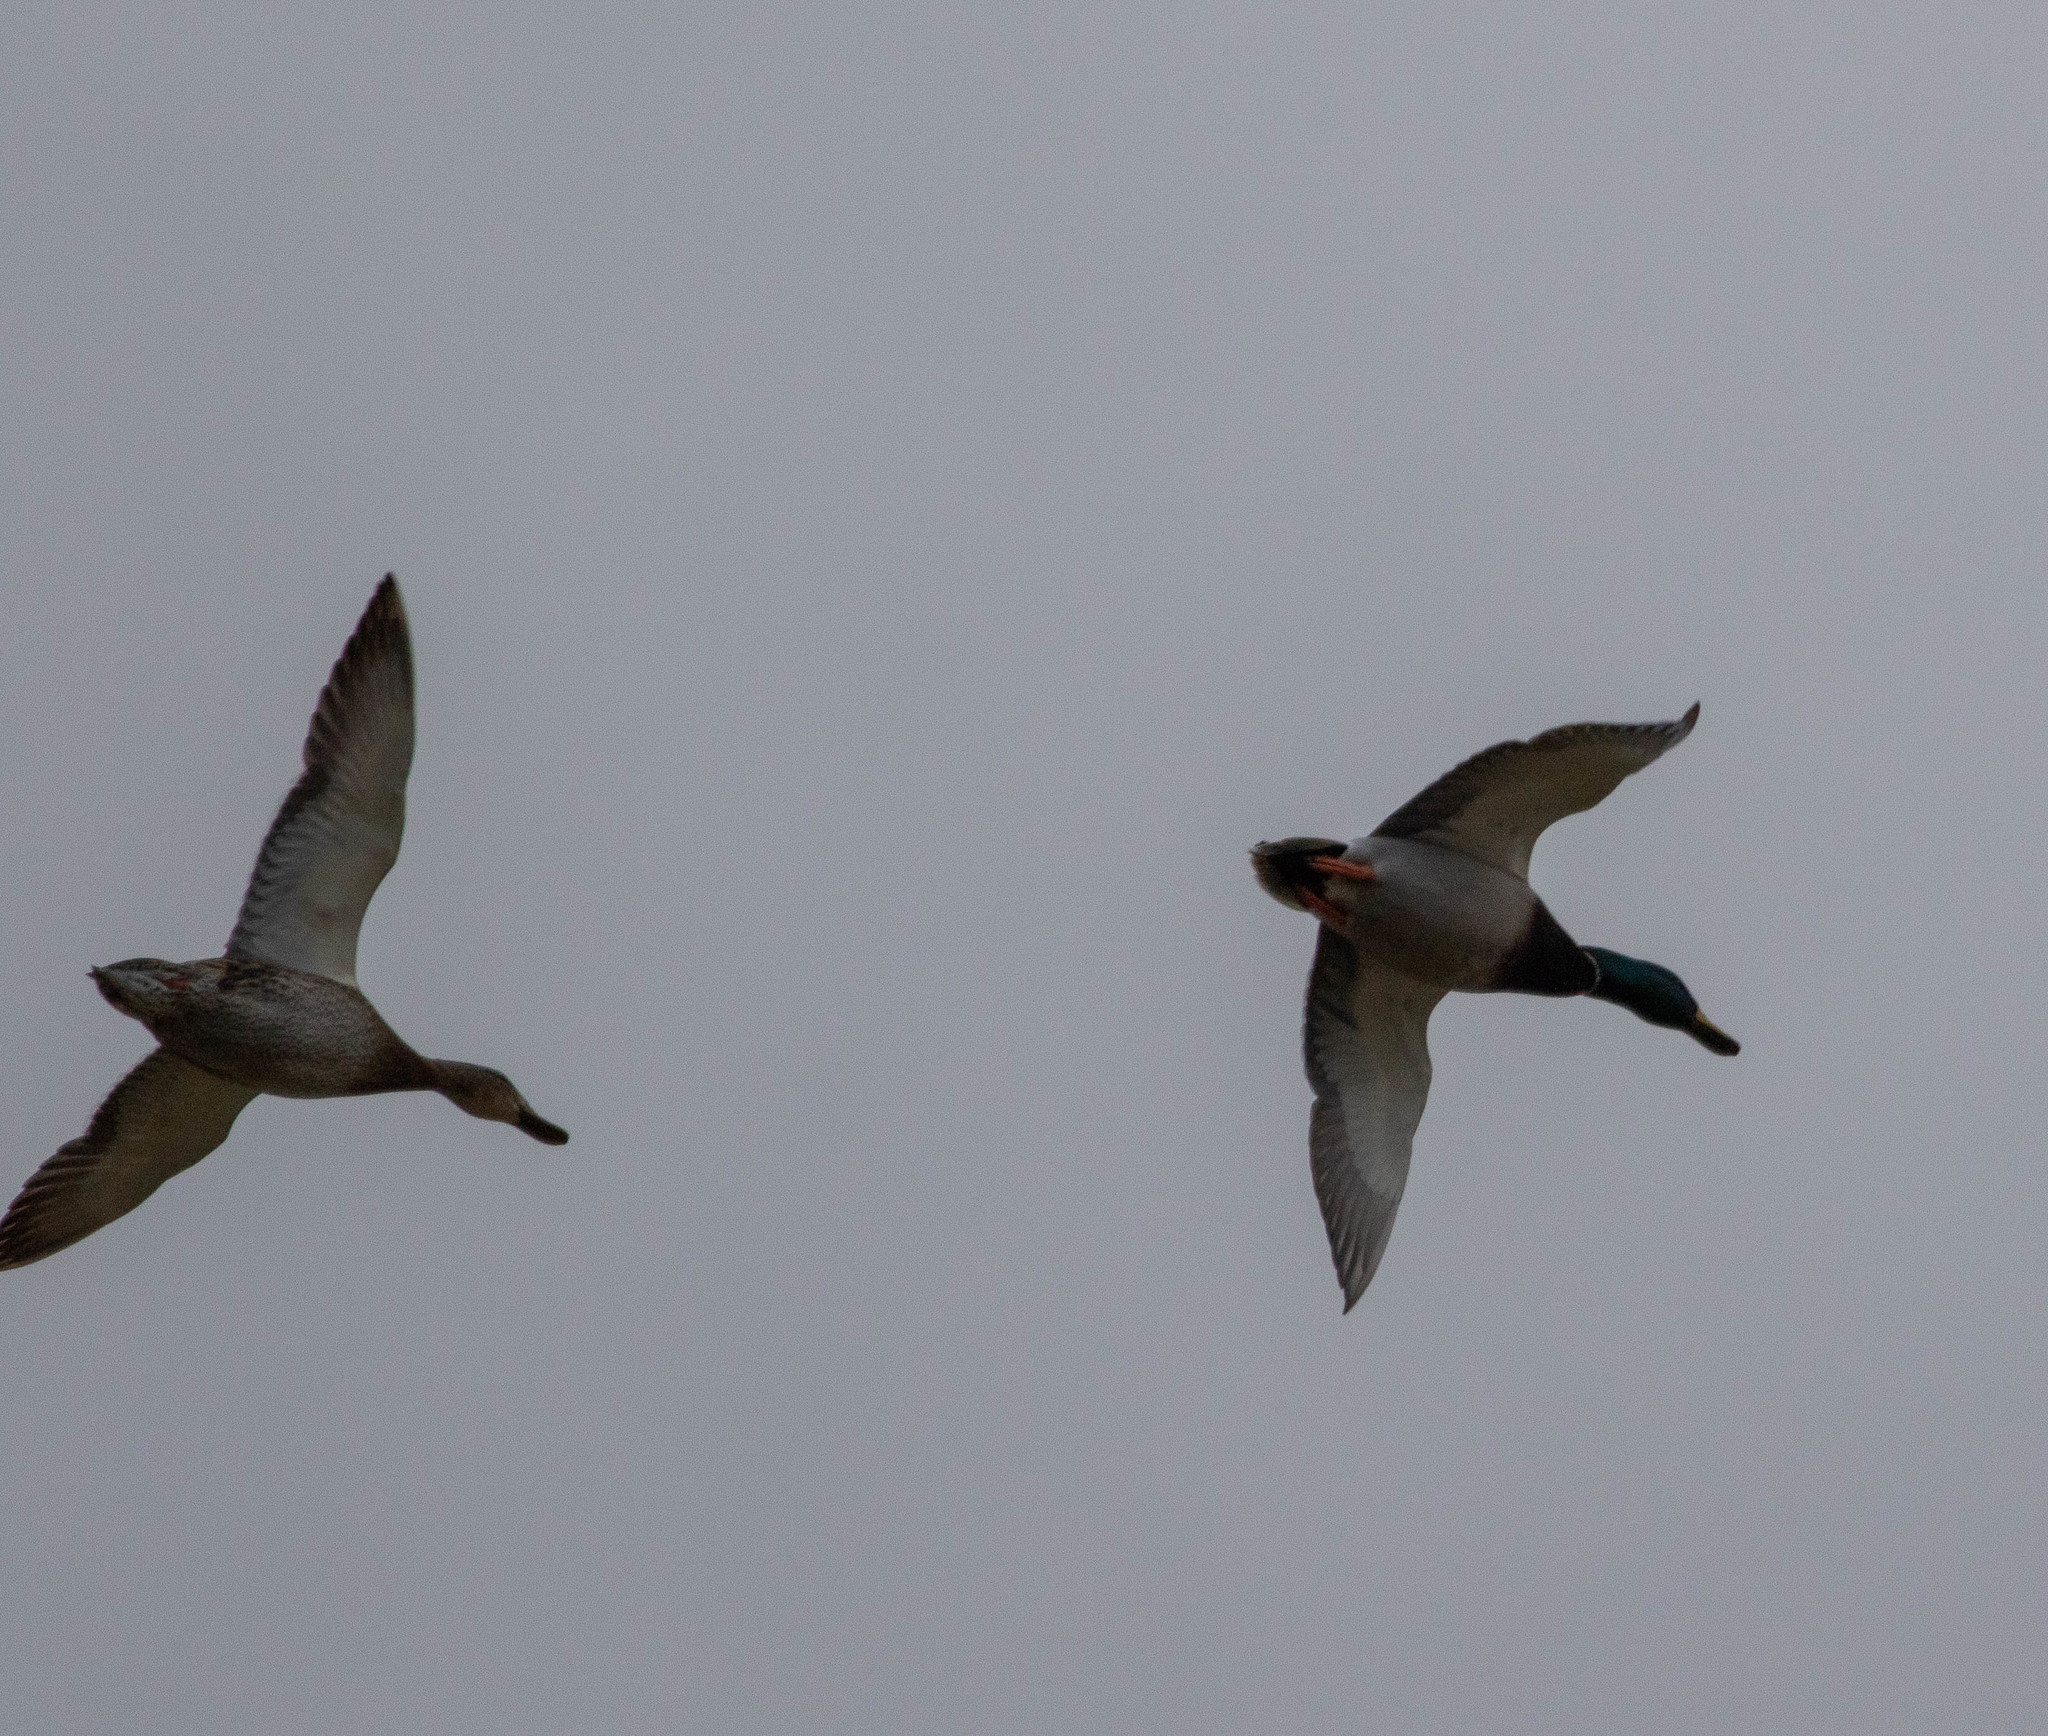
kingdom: Animalia
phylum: Chordata
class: Aves
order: Anseriformes
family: Anatidae
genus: Anas
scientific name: Anas platyrhynchos
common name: Mallard
